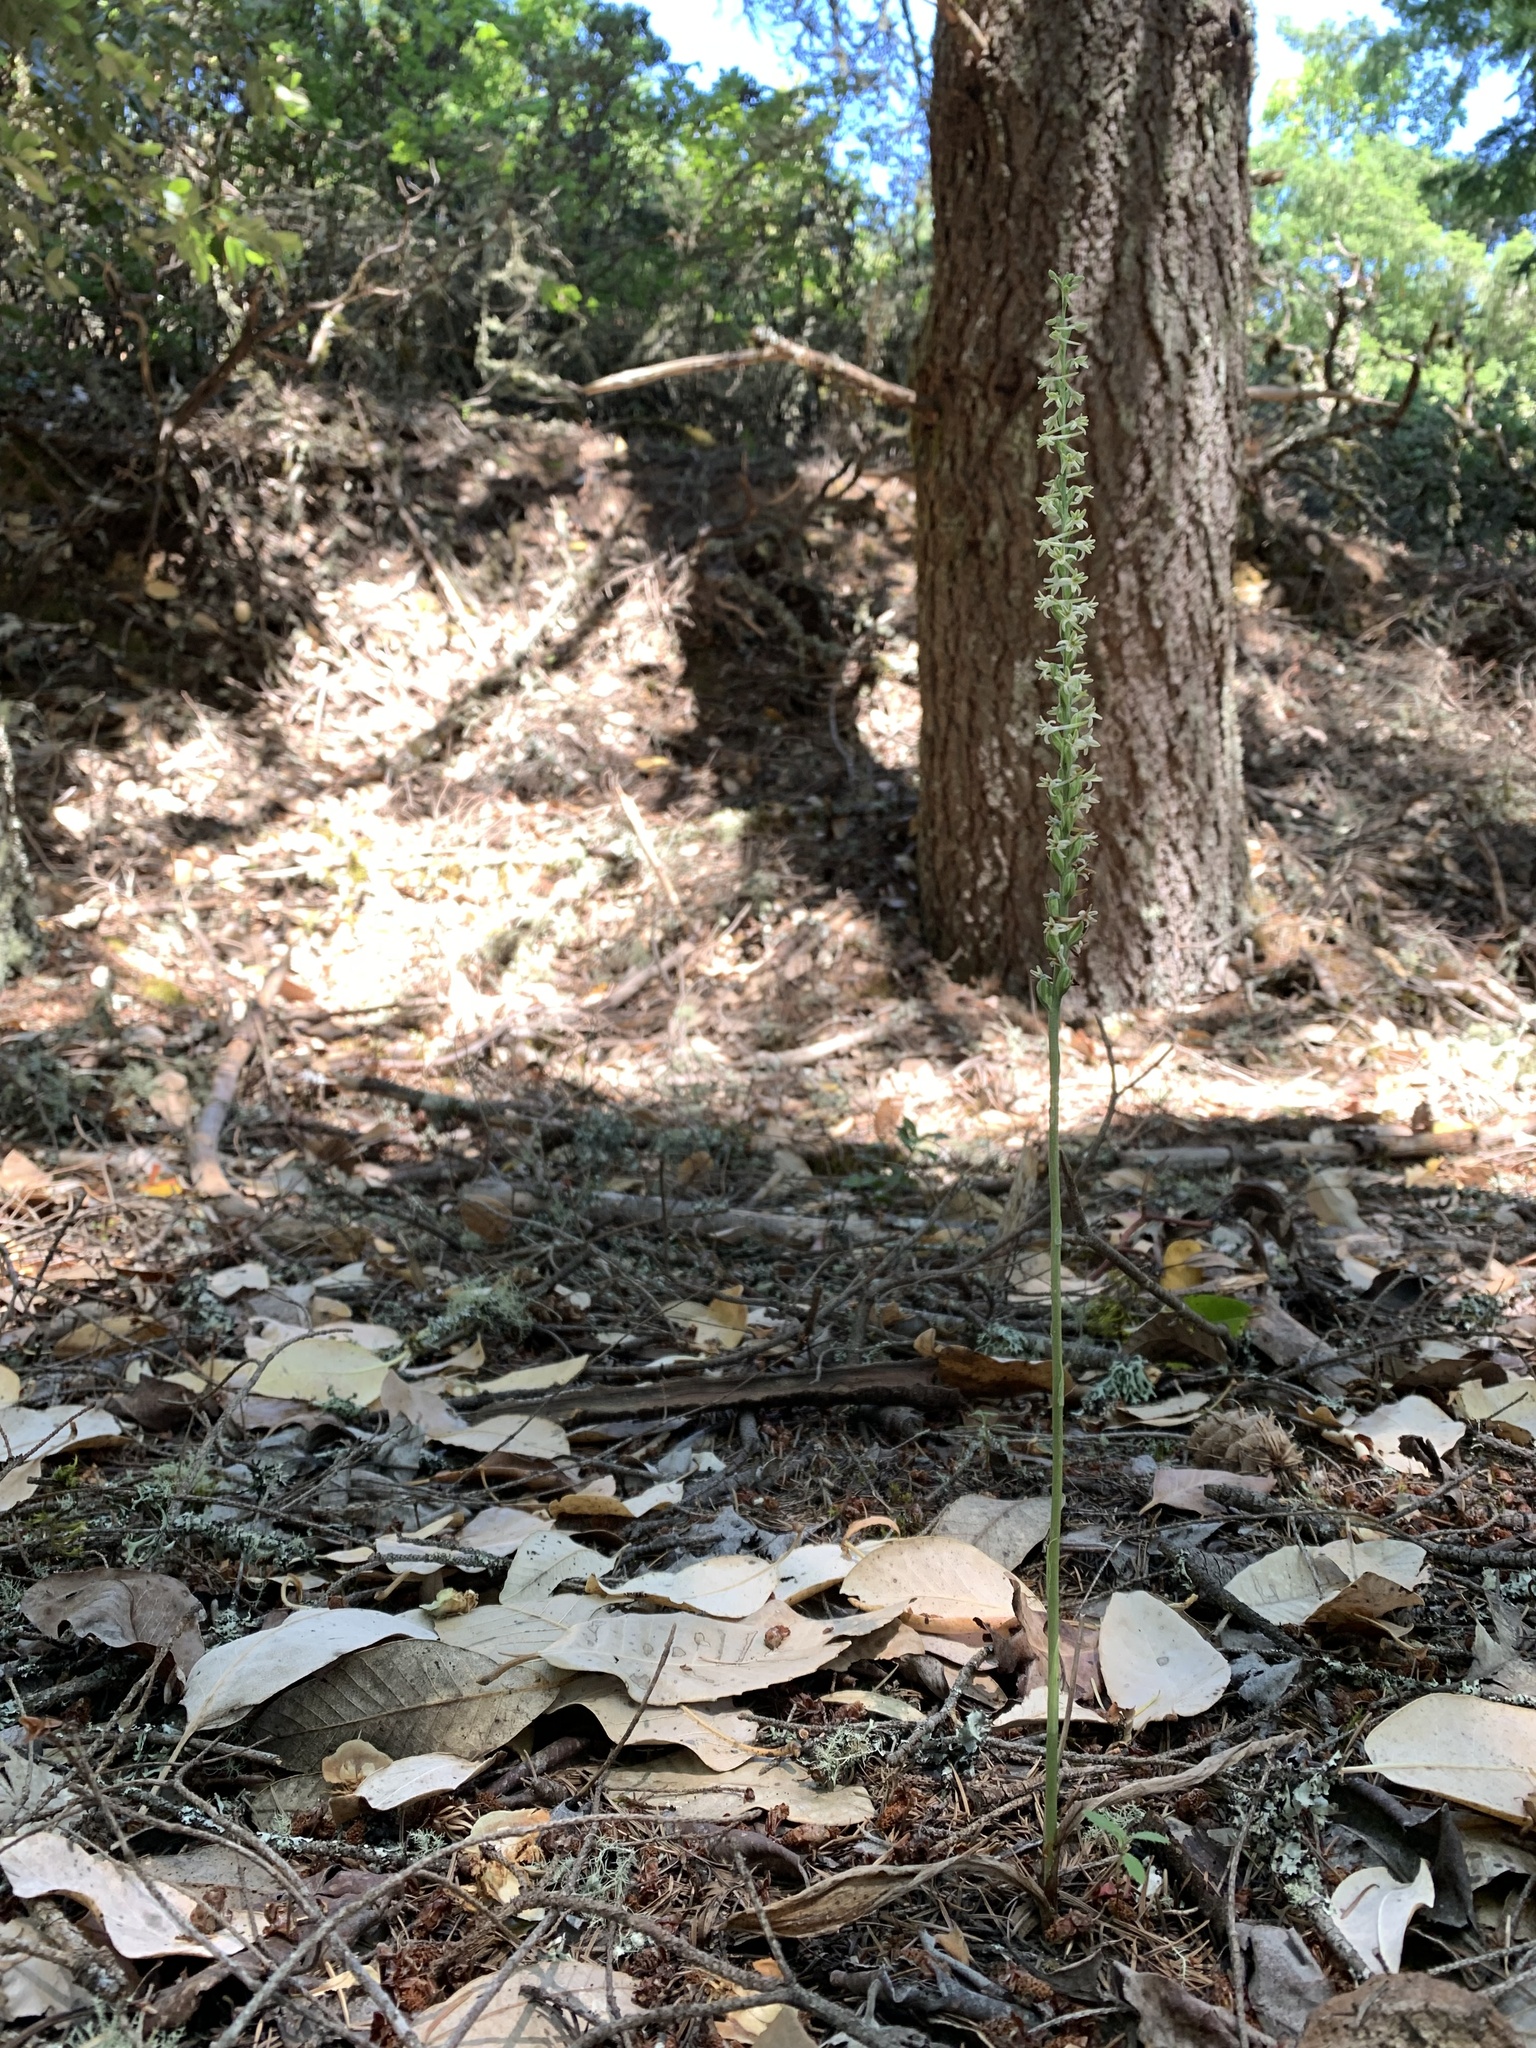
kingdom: Plantae
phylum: Tracheophyta
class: Liliopsida
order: Asparagales
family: Orchidaceae
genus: Platanthera
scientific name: Platanthera transversa
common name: Royal rein orchid
